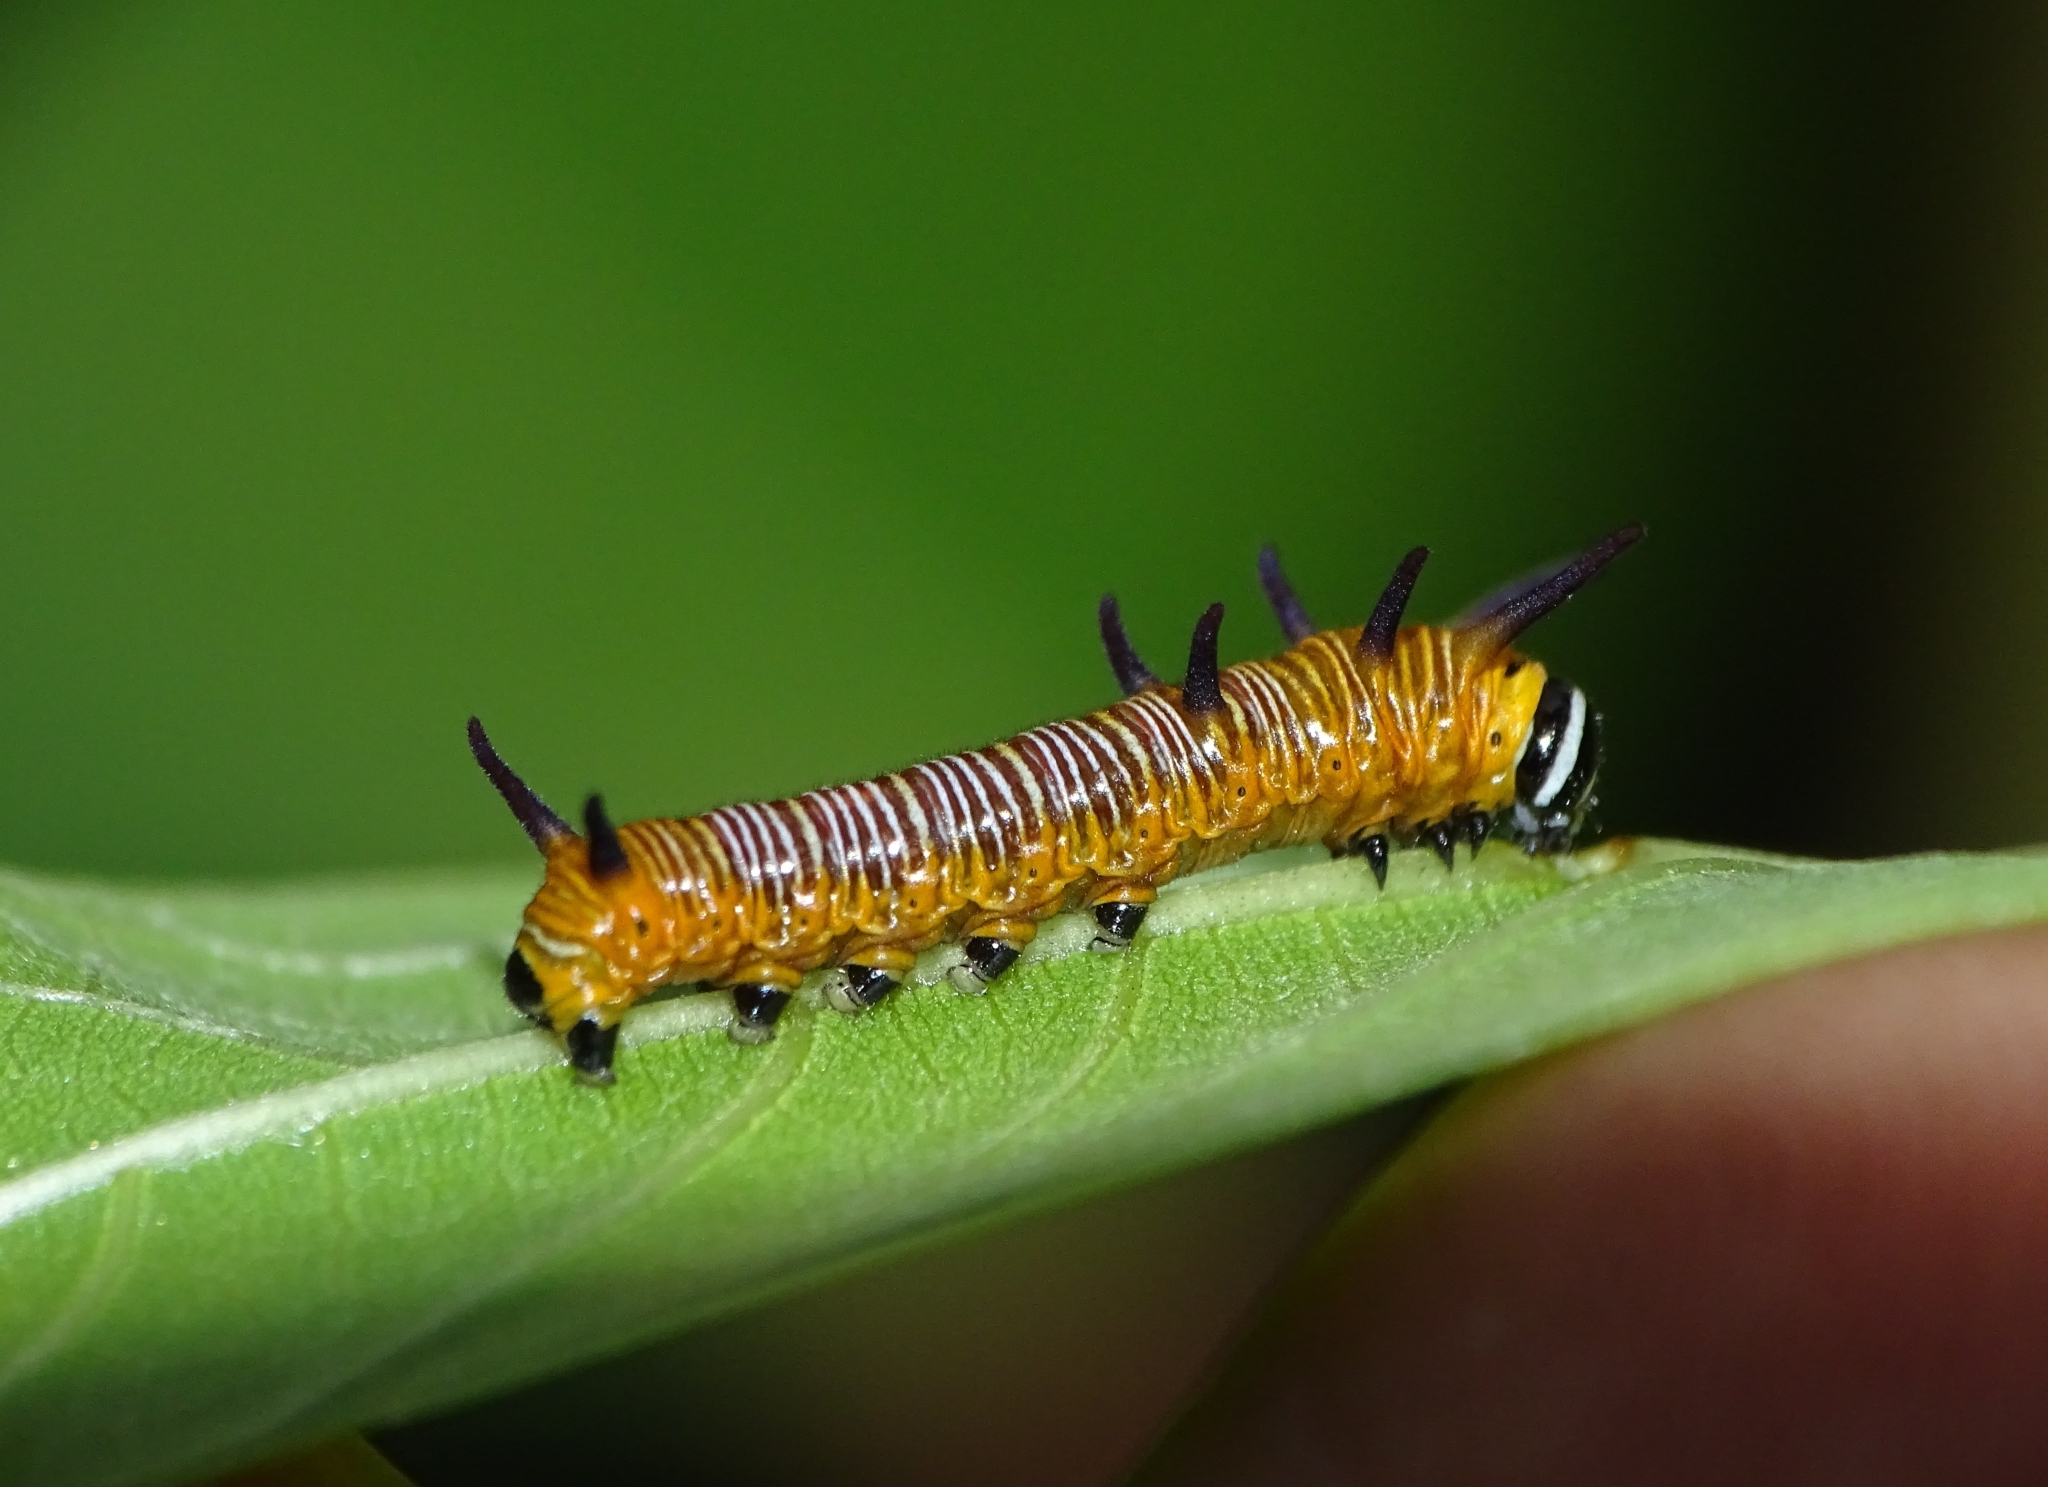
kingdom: Animalia
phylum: Arthropoda
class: Insecta
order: Lepidoptera
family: Nymphalidae
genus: Euploea
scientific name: Euploea core
